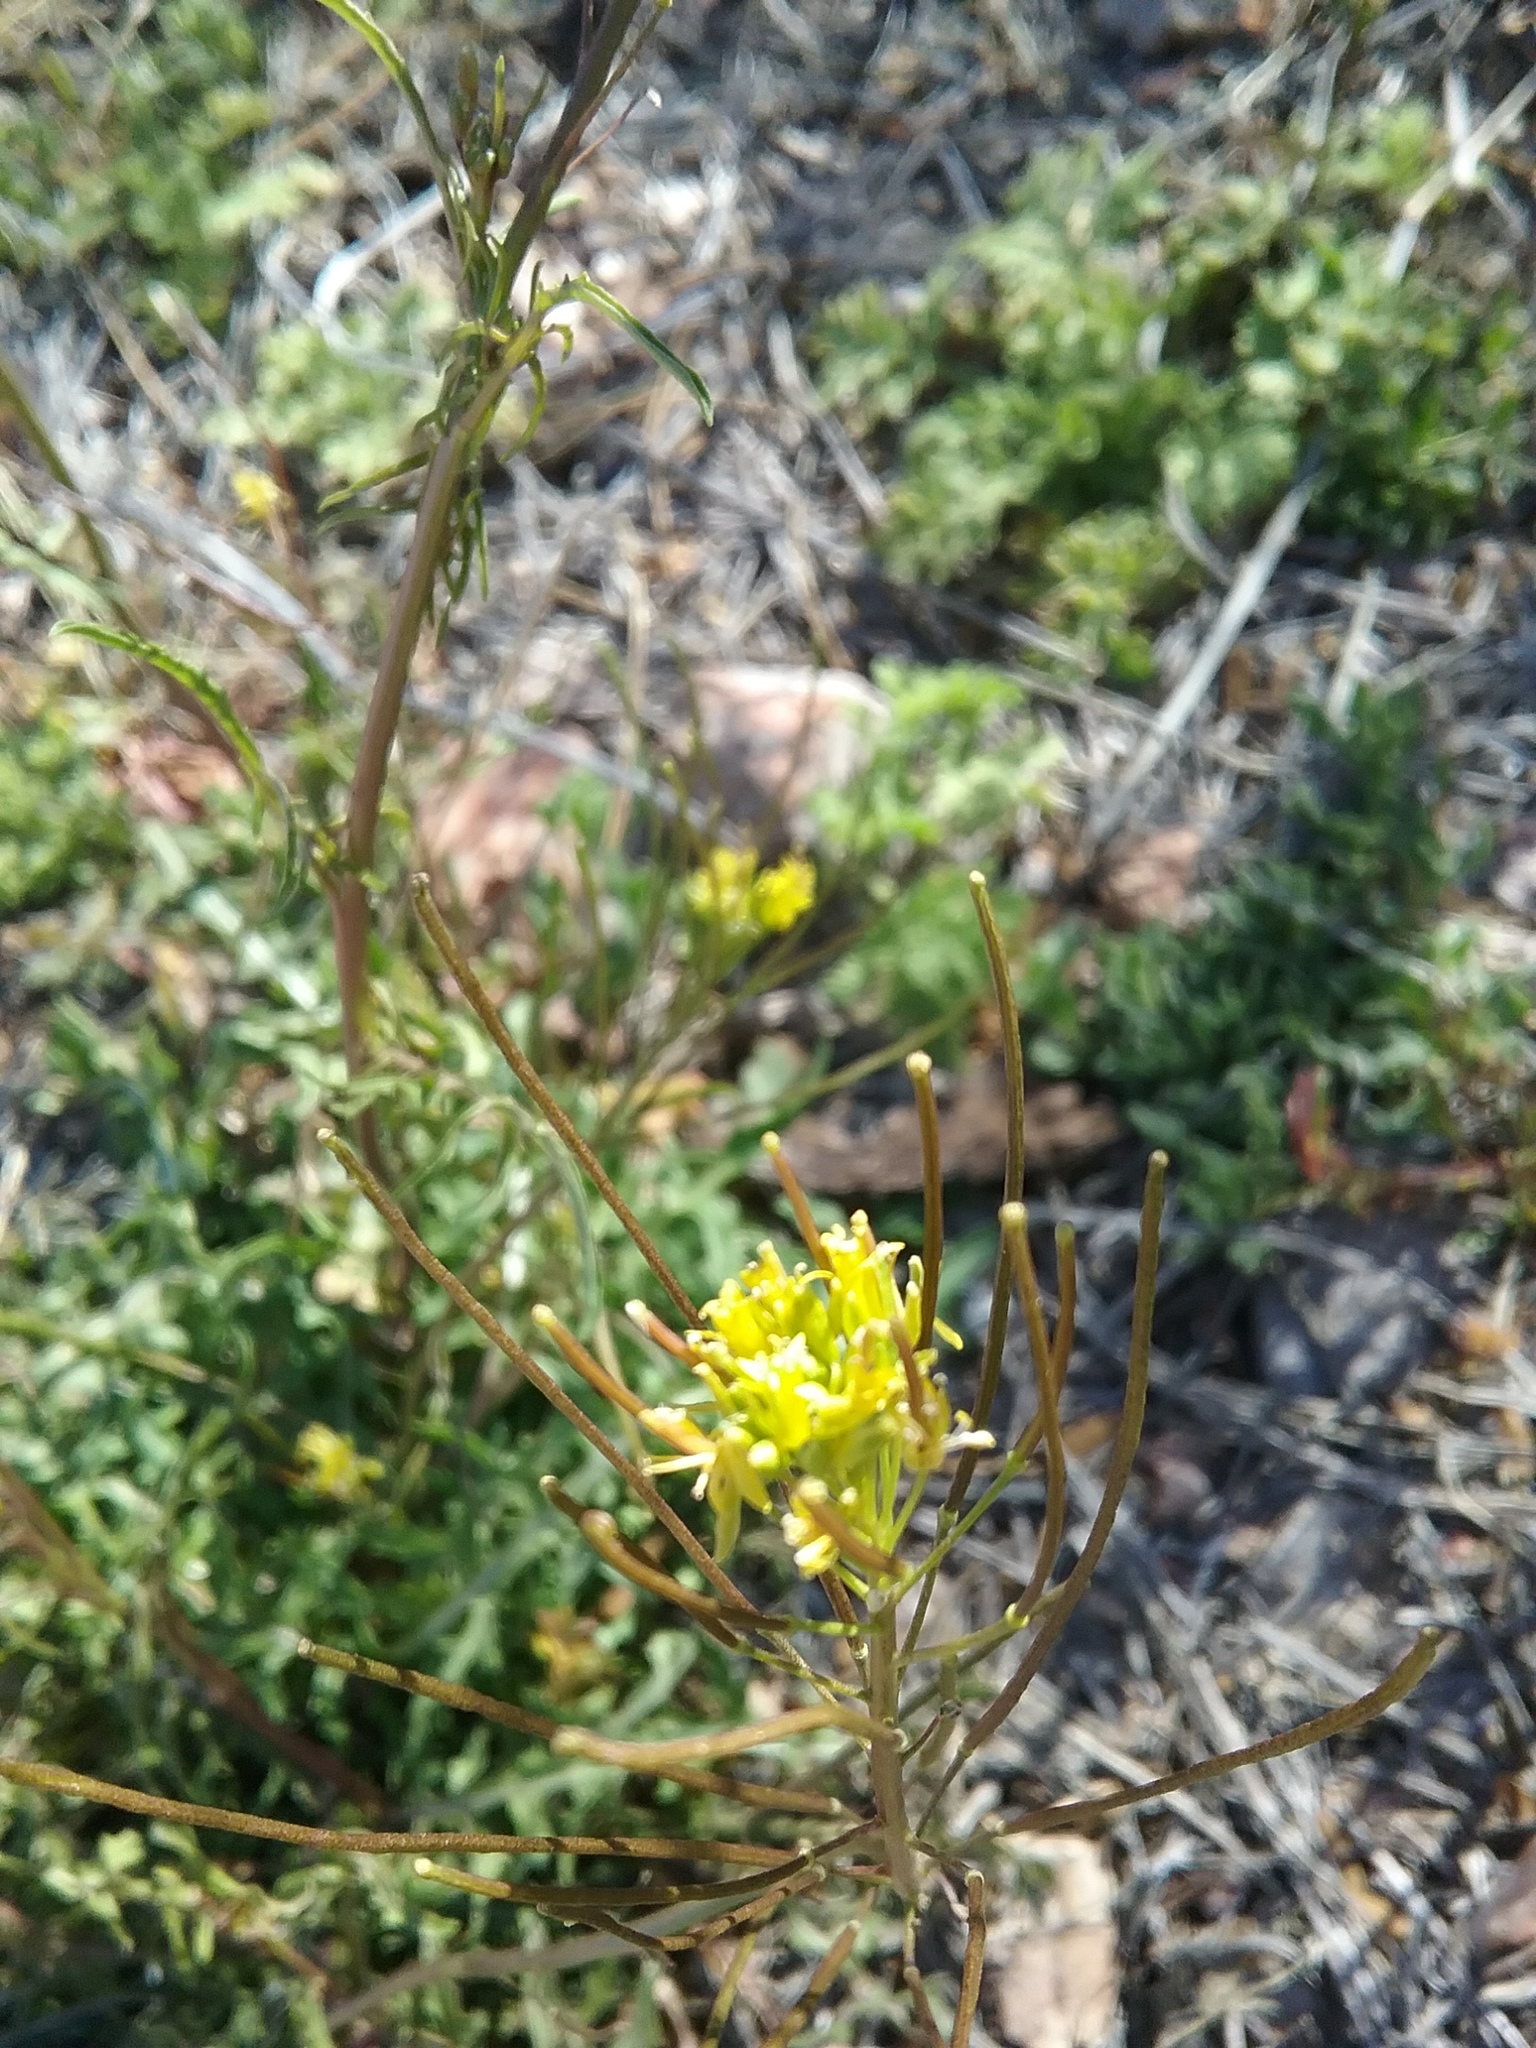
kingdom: Plantae
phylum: Tracheophyta
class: Magnoliopsida
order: Brassicales
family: Brassicaceae
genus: Sisymbrium
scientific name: Sisymbrium irio
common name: London rocket
